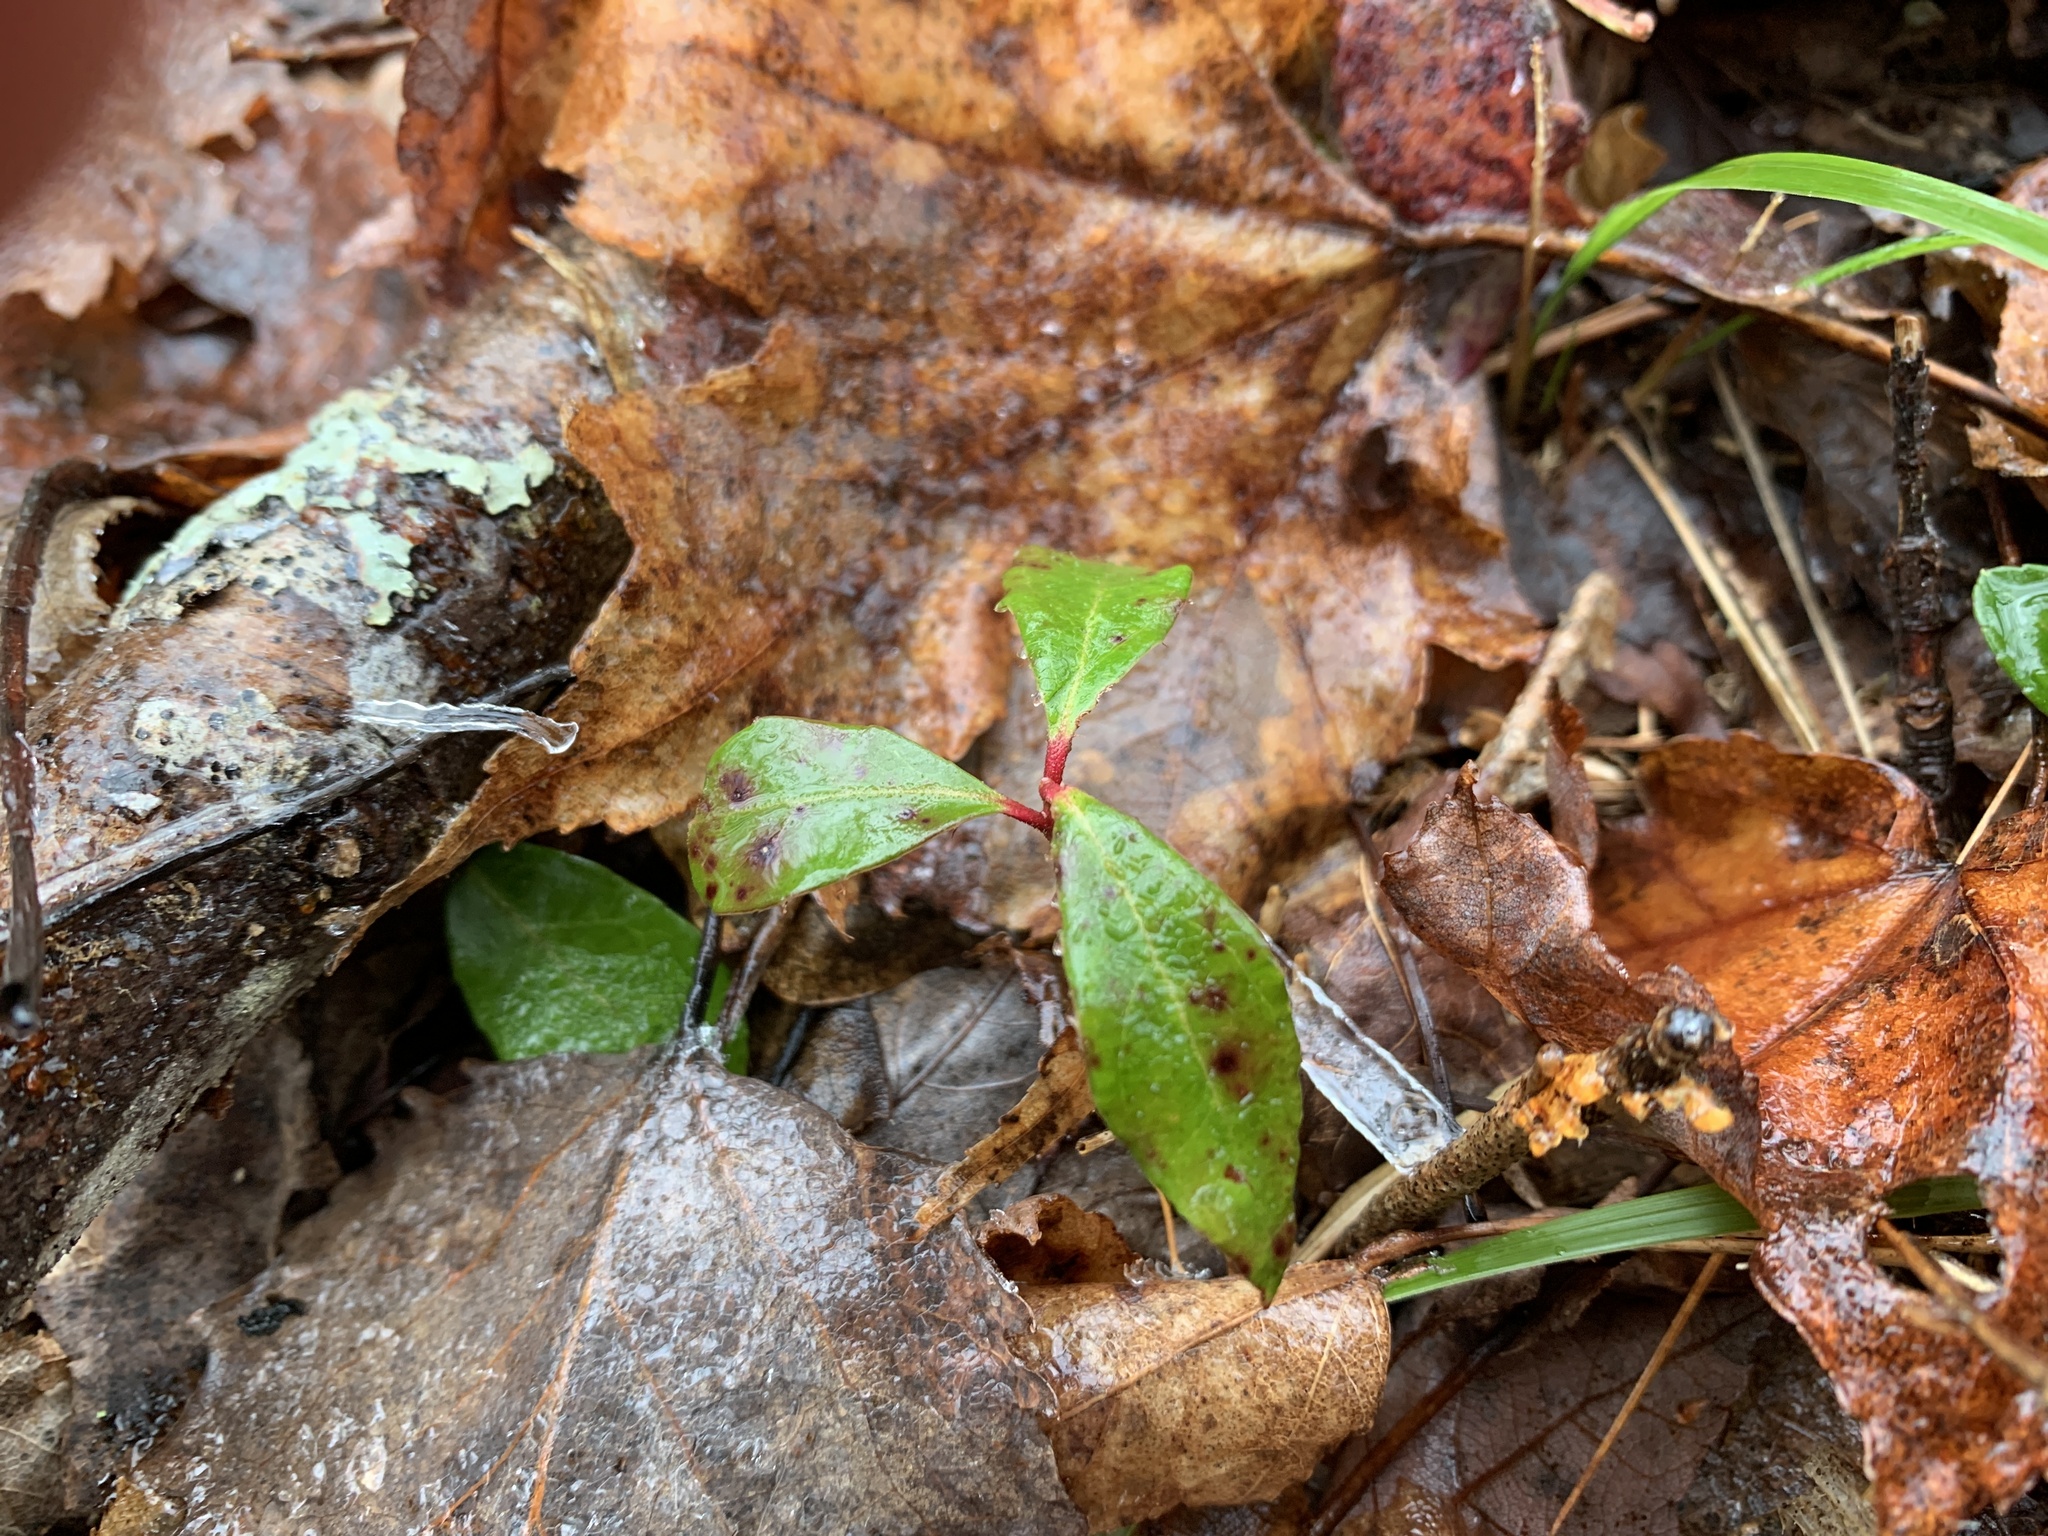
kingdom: Plantae
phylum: Tracheophyta
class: Magnoliopsida
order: Ericales
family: Ericaceae
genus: Gaultheria
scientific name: Gaultheria procumbens
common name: Checkerberry
